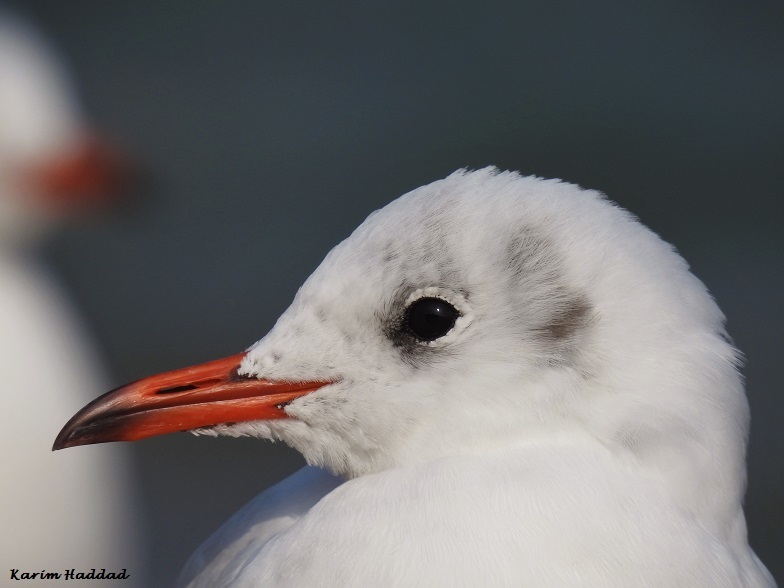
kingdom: Animalia
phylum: Chordata
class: Aves
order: Charadriiformes
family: Laridae
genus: Chroicocephalus
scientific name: Chroicocephalus ridibundus
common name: Black-headed gull
